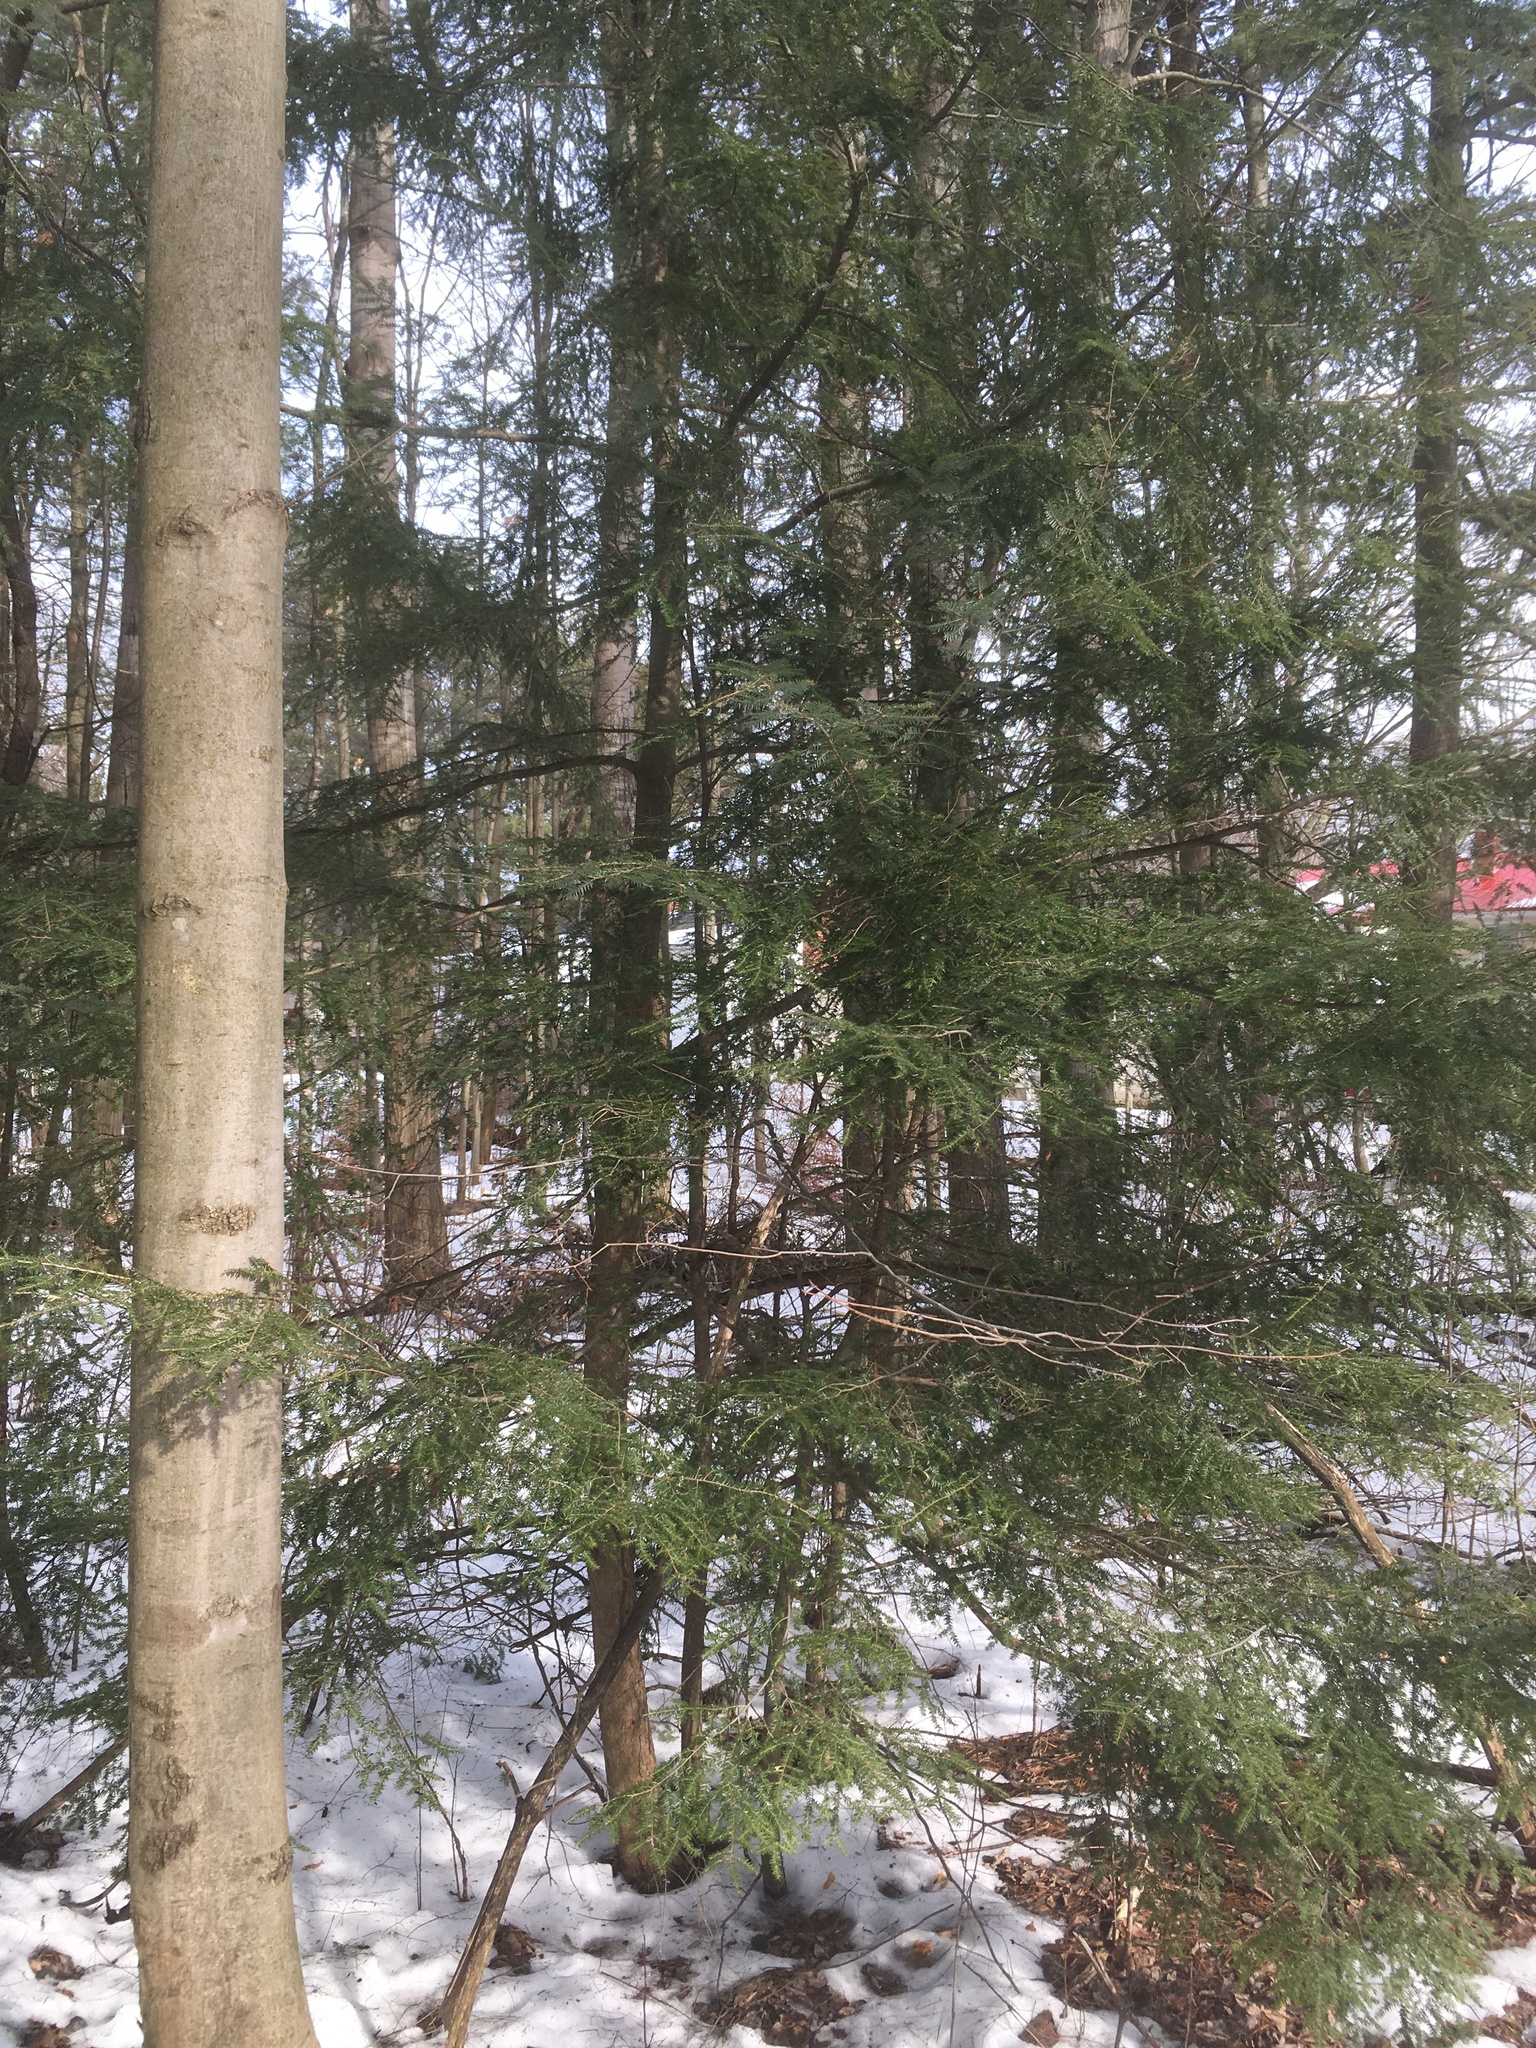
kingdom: Plantae
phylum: Tracheophyta
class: Pinopsida
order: Pinales
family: Pinaceae
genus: Tsuga
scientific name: Tsuga canadensis
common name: Eastern hemlock
